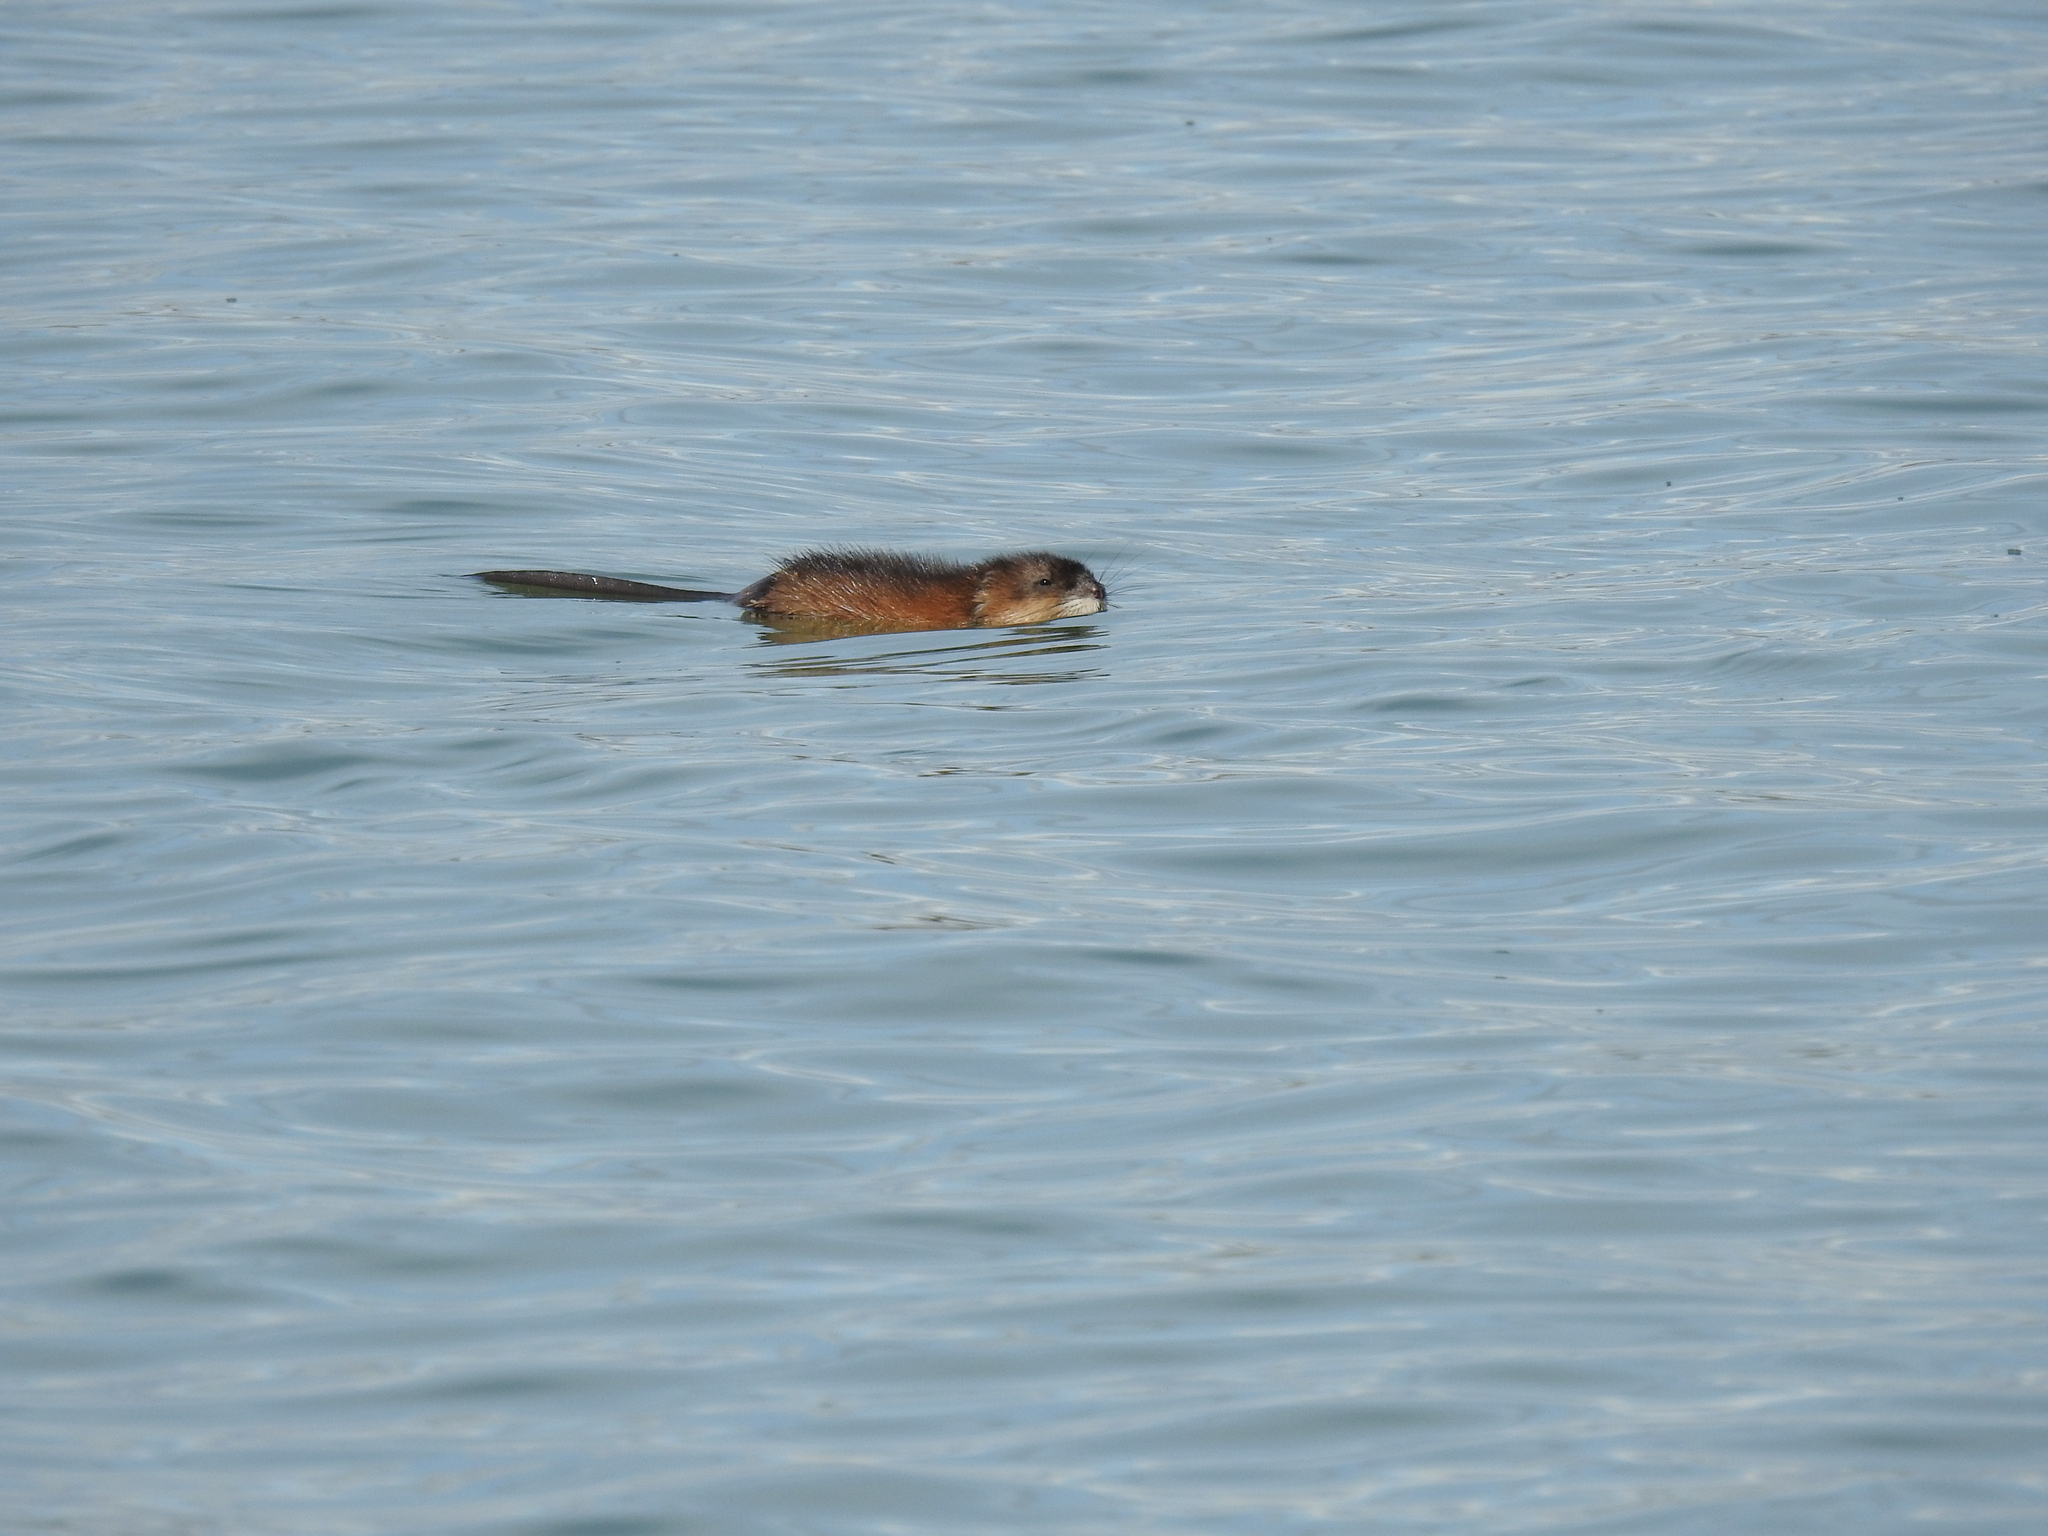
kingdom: Animalia
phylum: Chordata
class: Mammalia
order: Rodentia
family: Cricetidae
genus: Ondatra
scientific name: Ondatra zibethicus
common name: Muskrat
